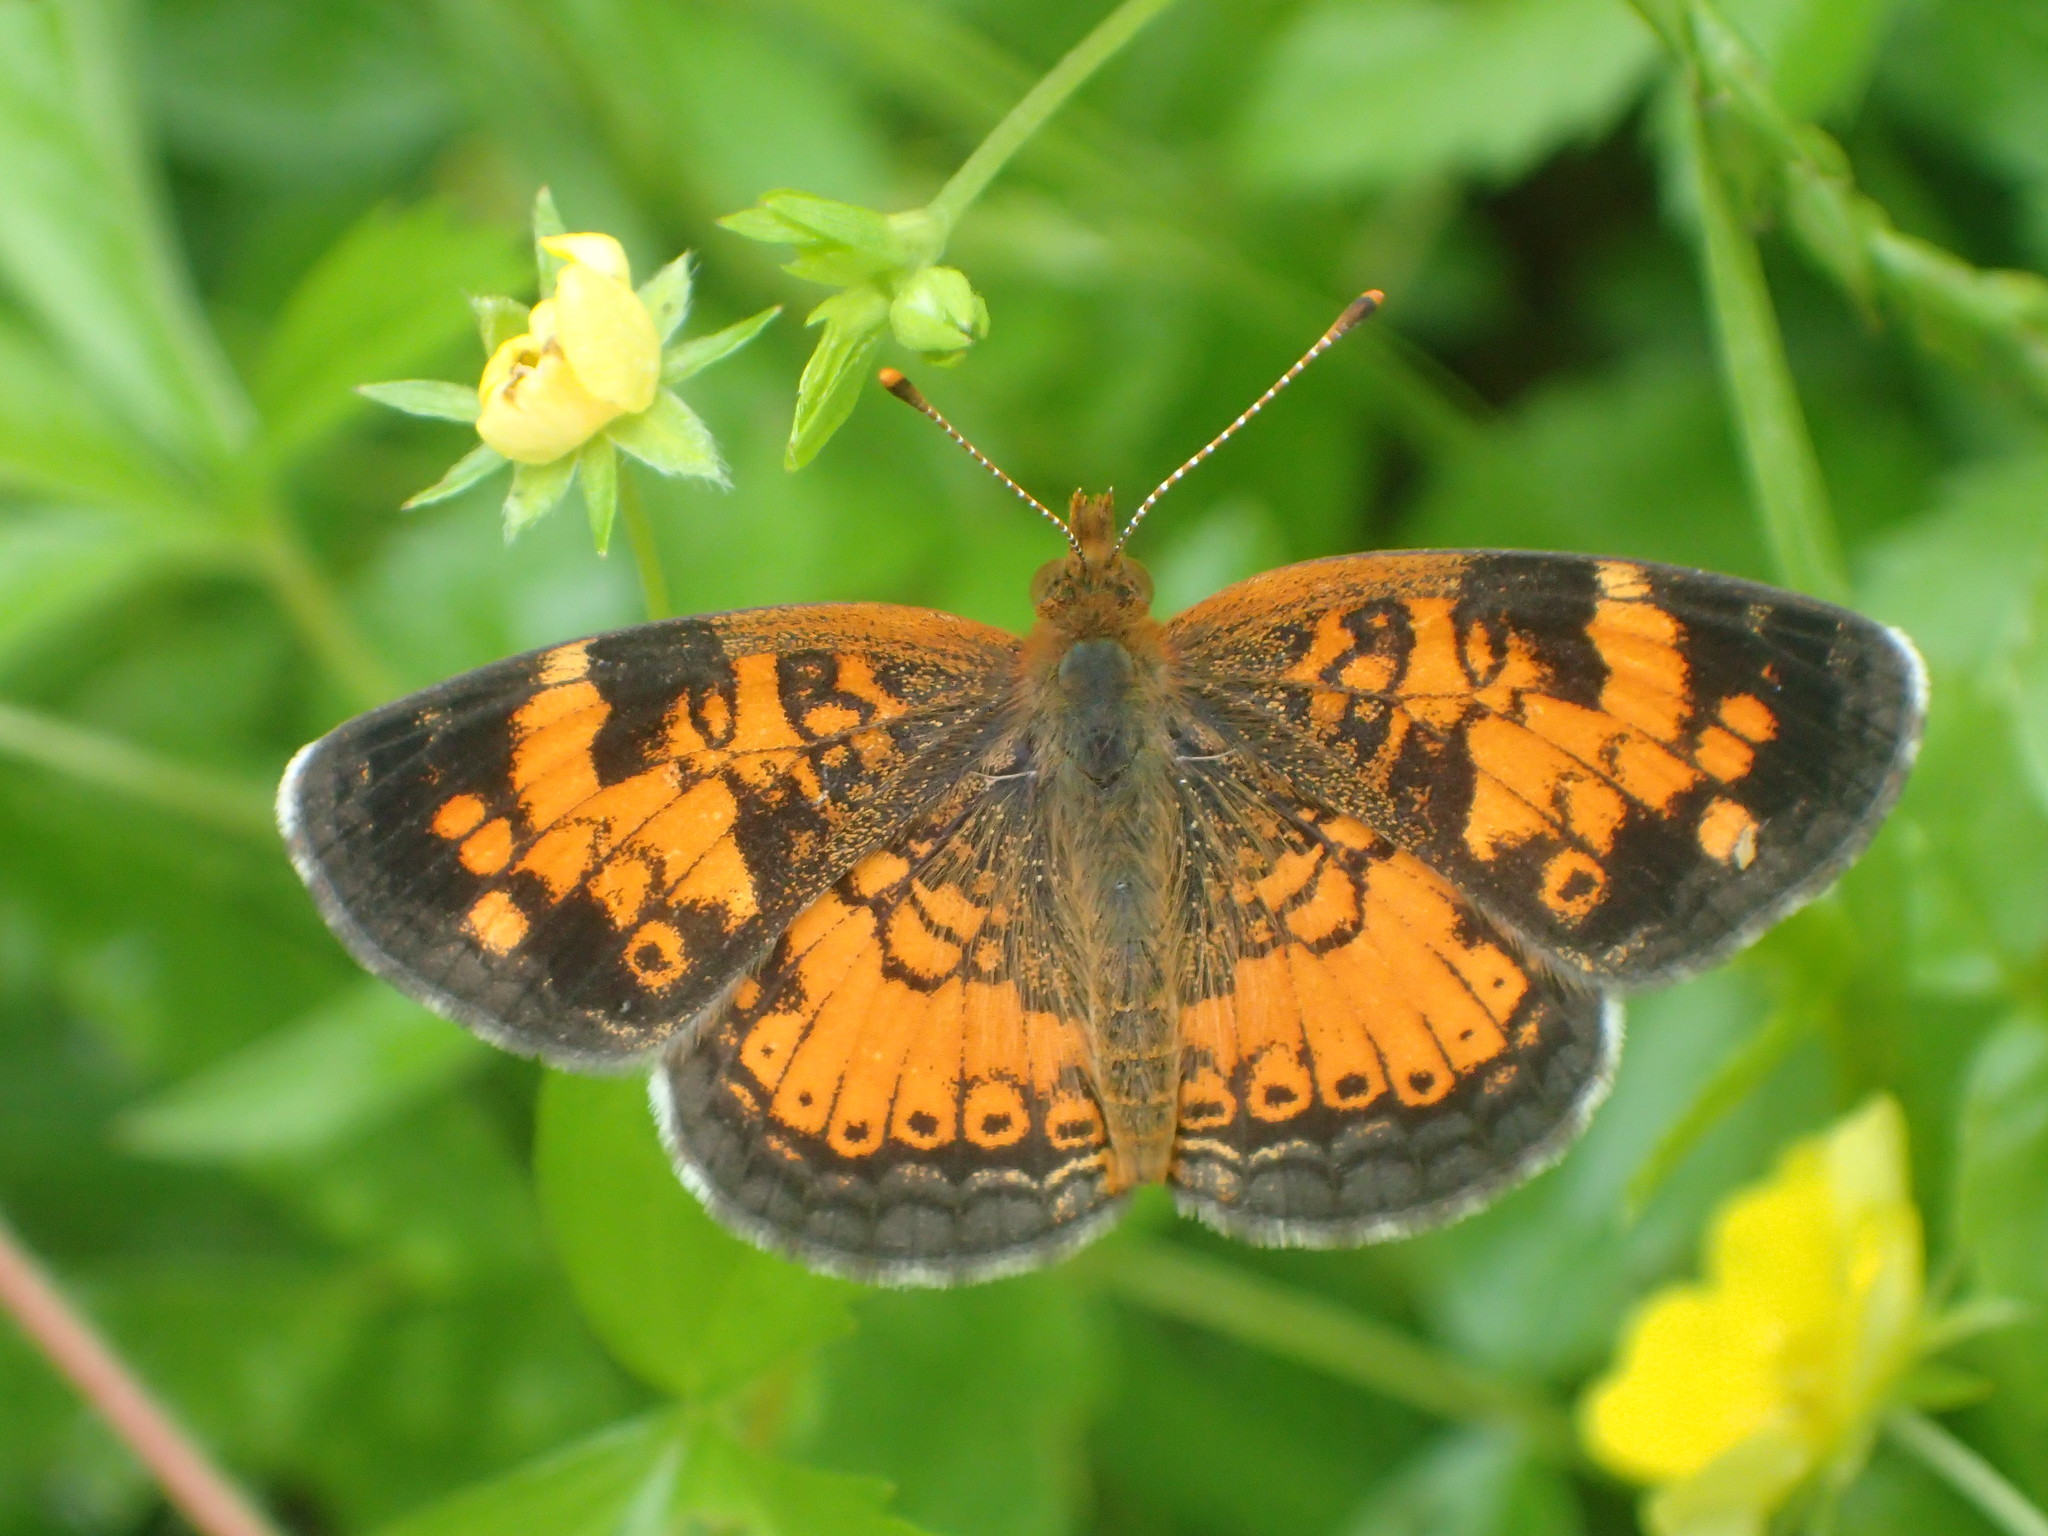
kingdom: Animalia
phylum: Arthropoda
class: Insecta
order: Lepidoptera
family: Nymphalidae
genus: Phyciodes
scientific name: Phyciodes tharos
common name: Pearl crescent
